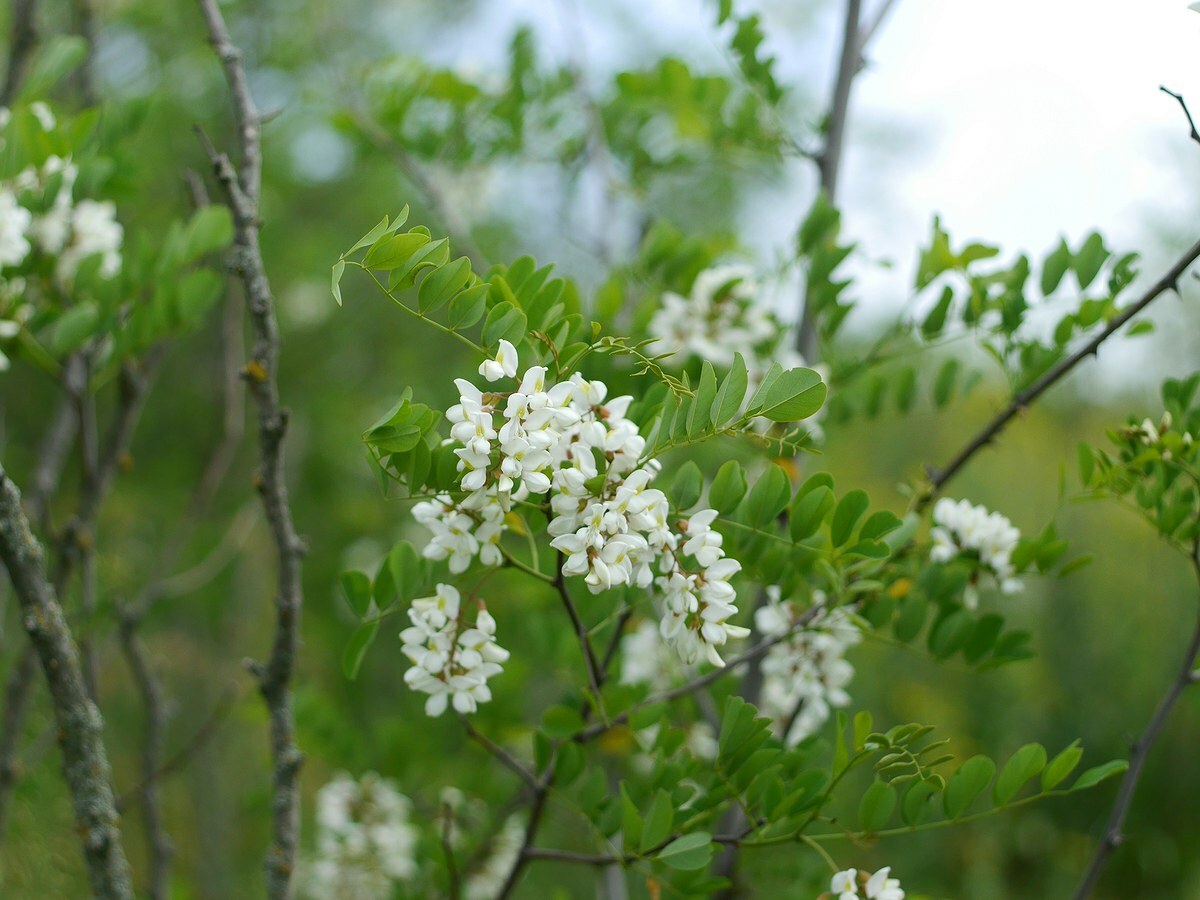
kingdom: Plantae
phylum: Tracheophyta
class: Magnoliopsida
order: Fabales
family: Fabaceae
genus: Robinia
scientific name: Robinia pseudoacacia
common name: Black locust
